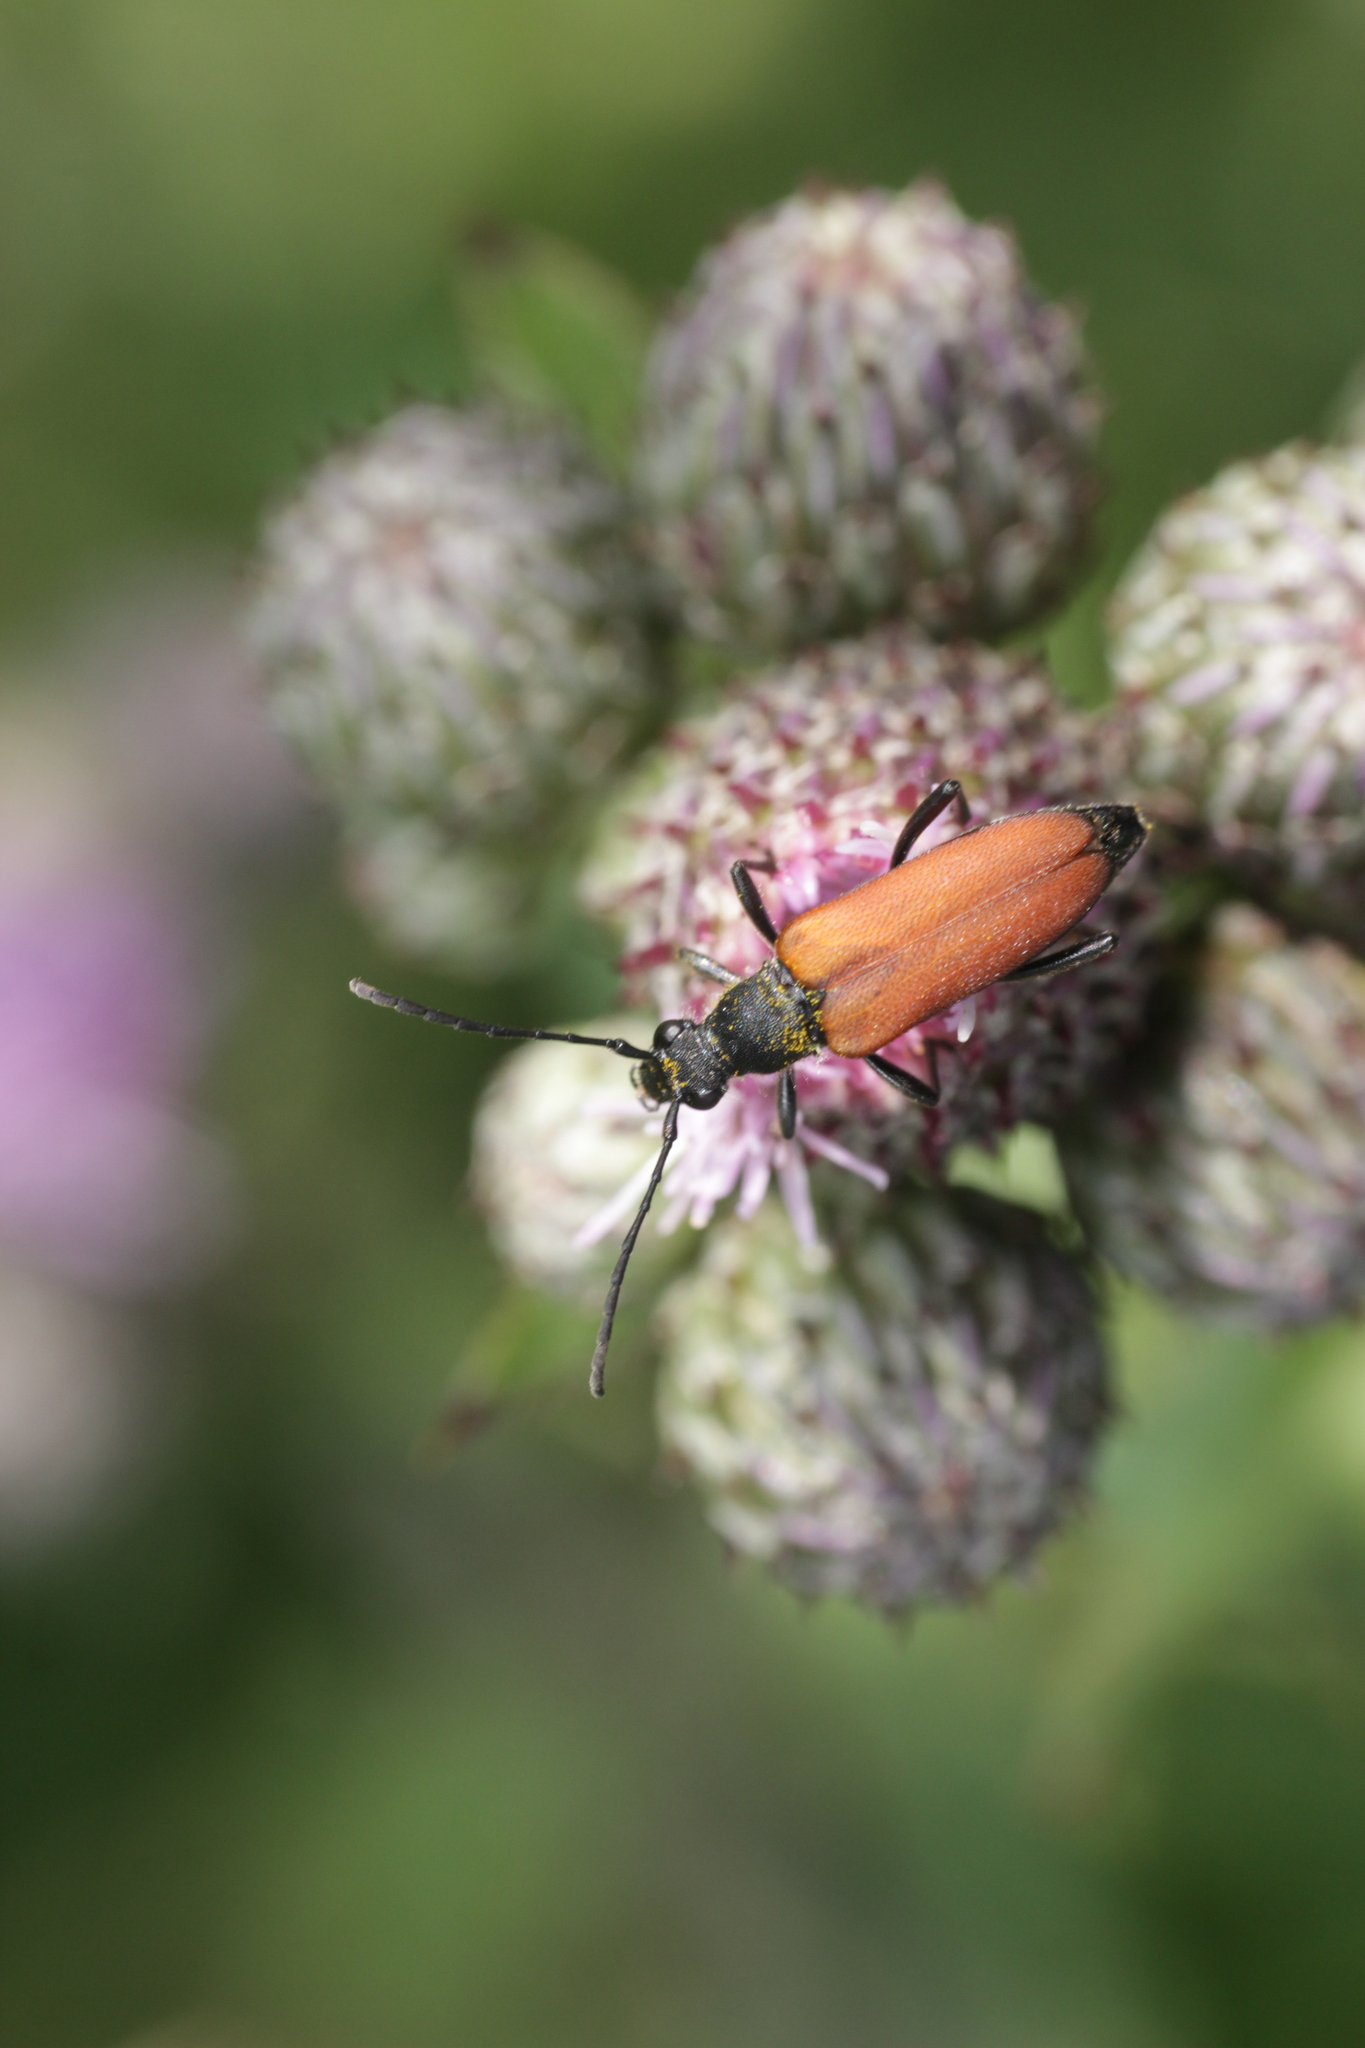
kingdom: Animalia
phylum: Arthropoda
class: Insecta
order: Coleoptera
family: Cerambycidae
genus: Anastrangalia
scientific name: Anastrangalia sanguinolenta
